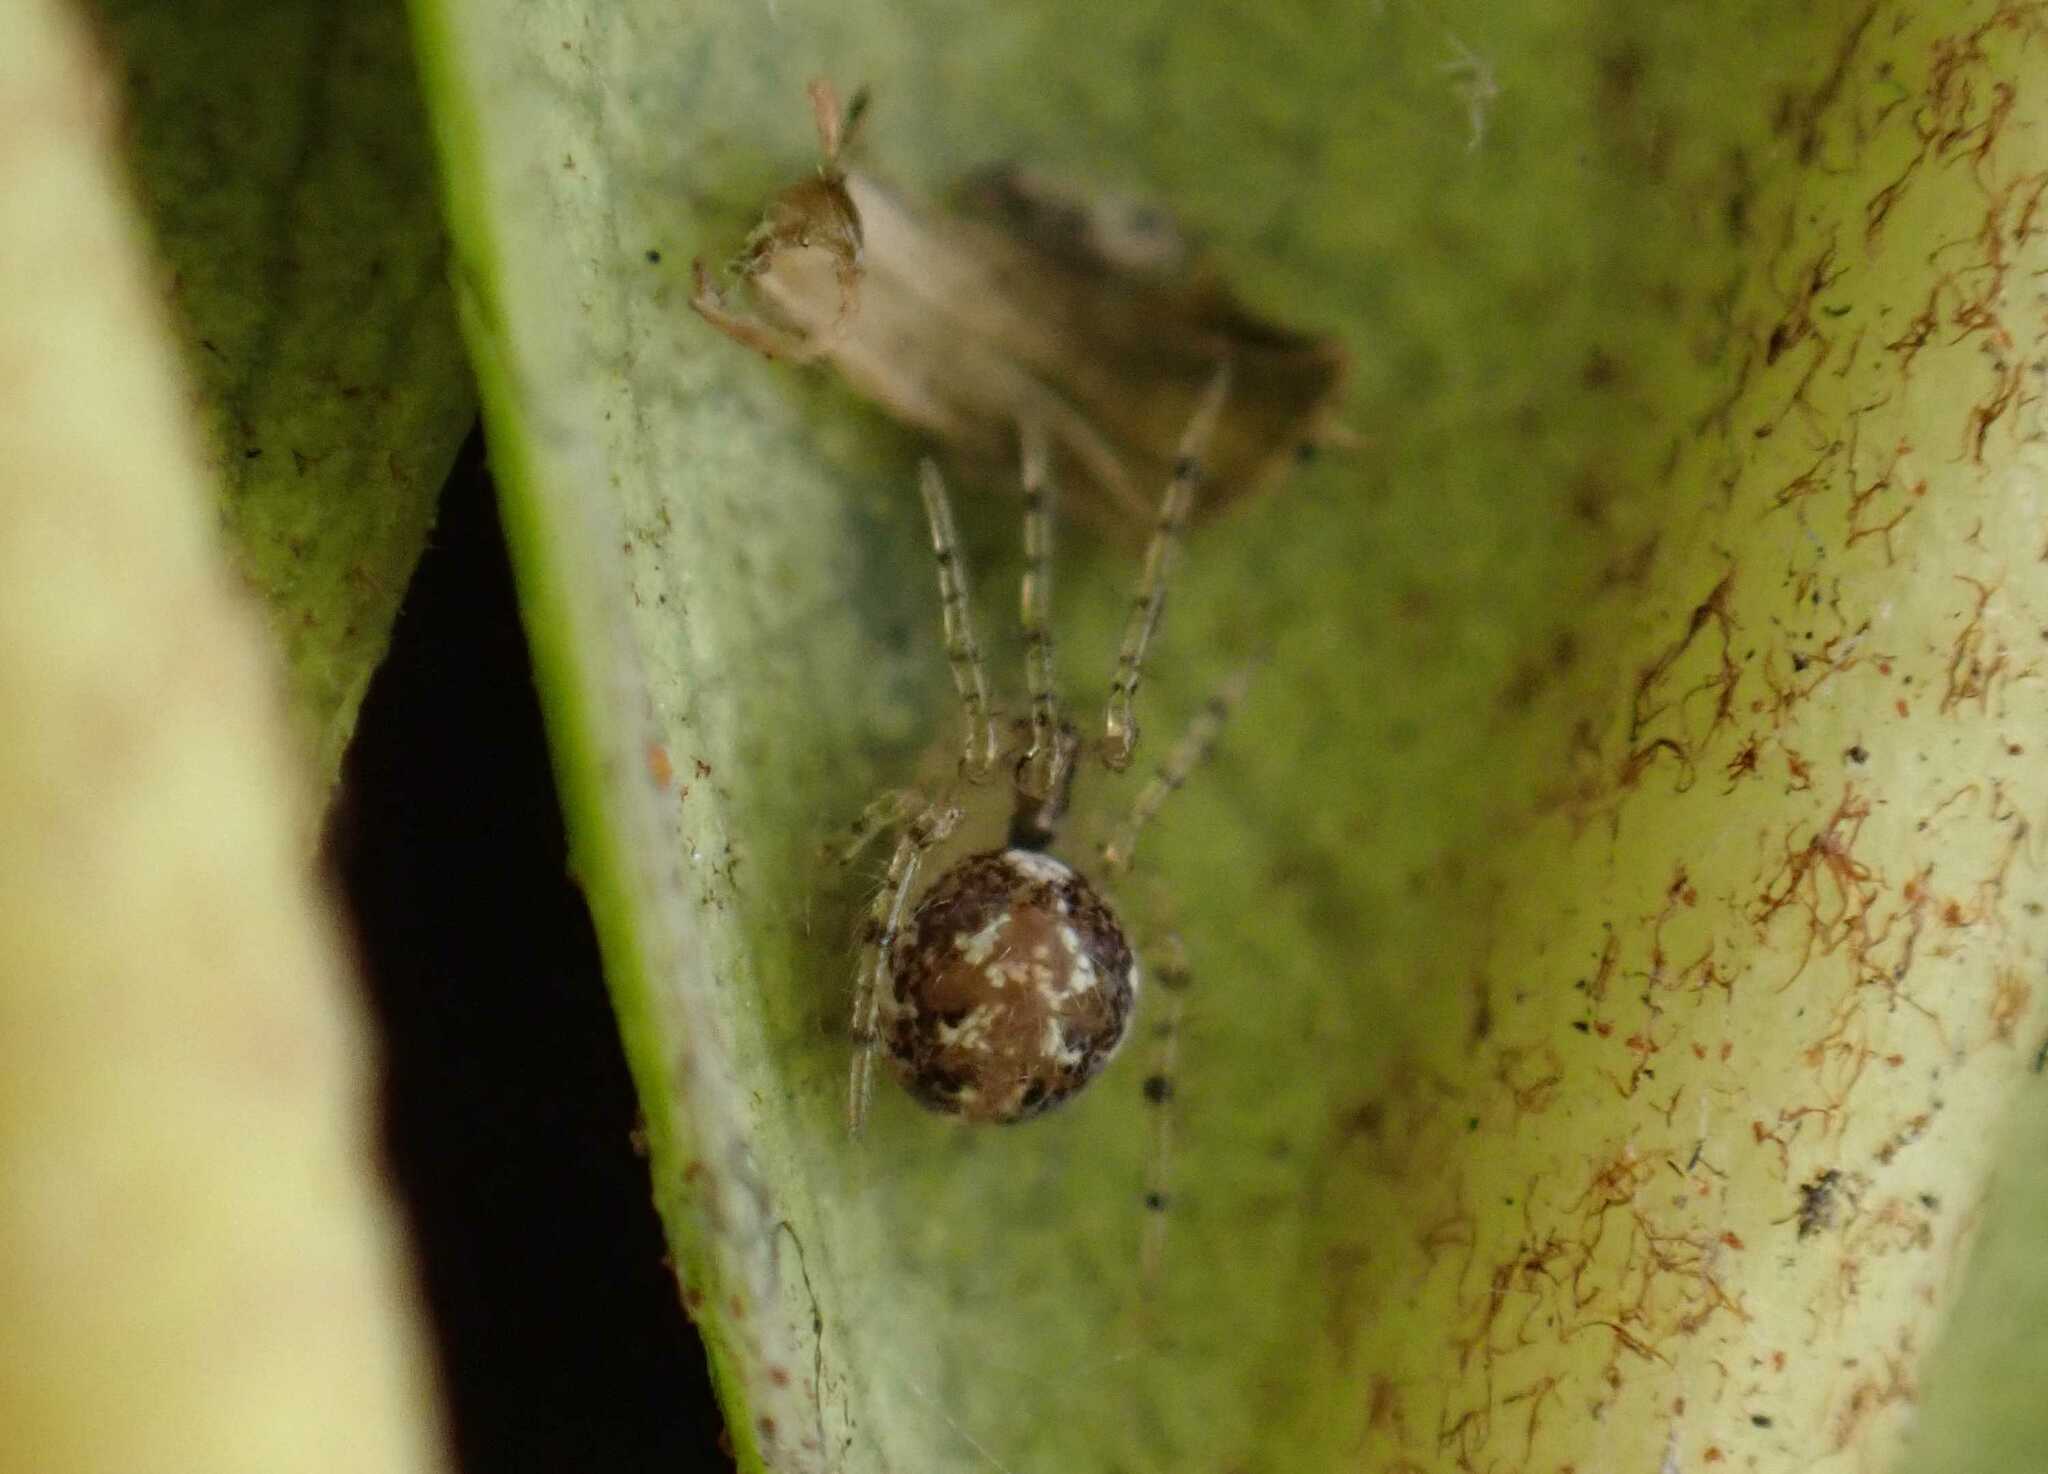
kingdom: Animalia
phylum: Arthropoda
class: Arachnida
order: Araneae
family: Theridiidae
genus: Theridion
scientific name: Theridion varians
